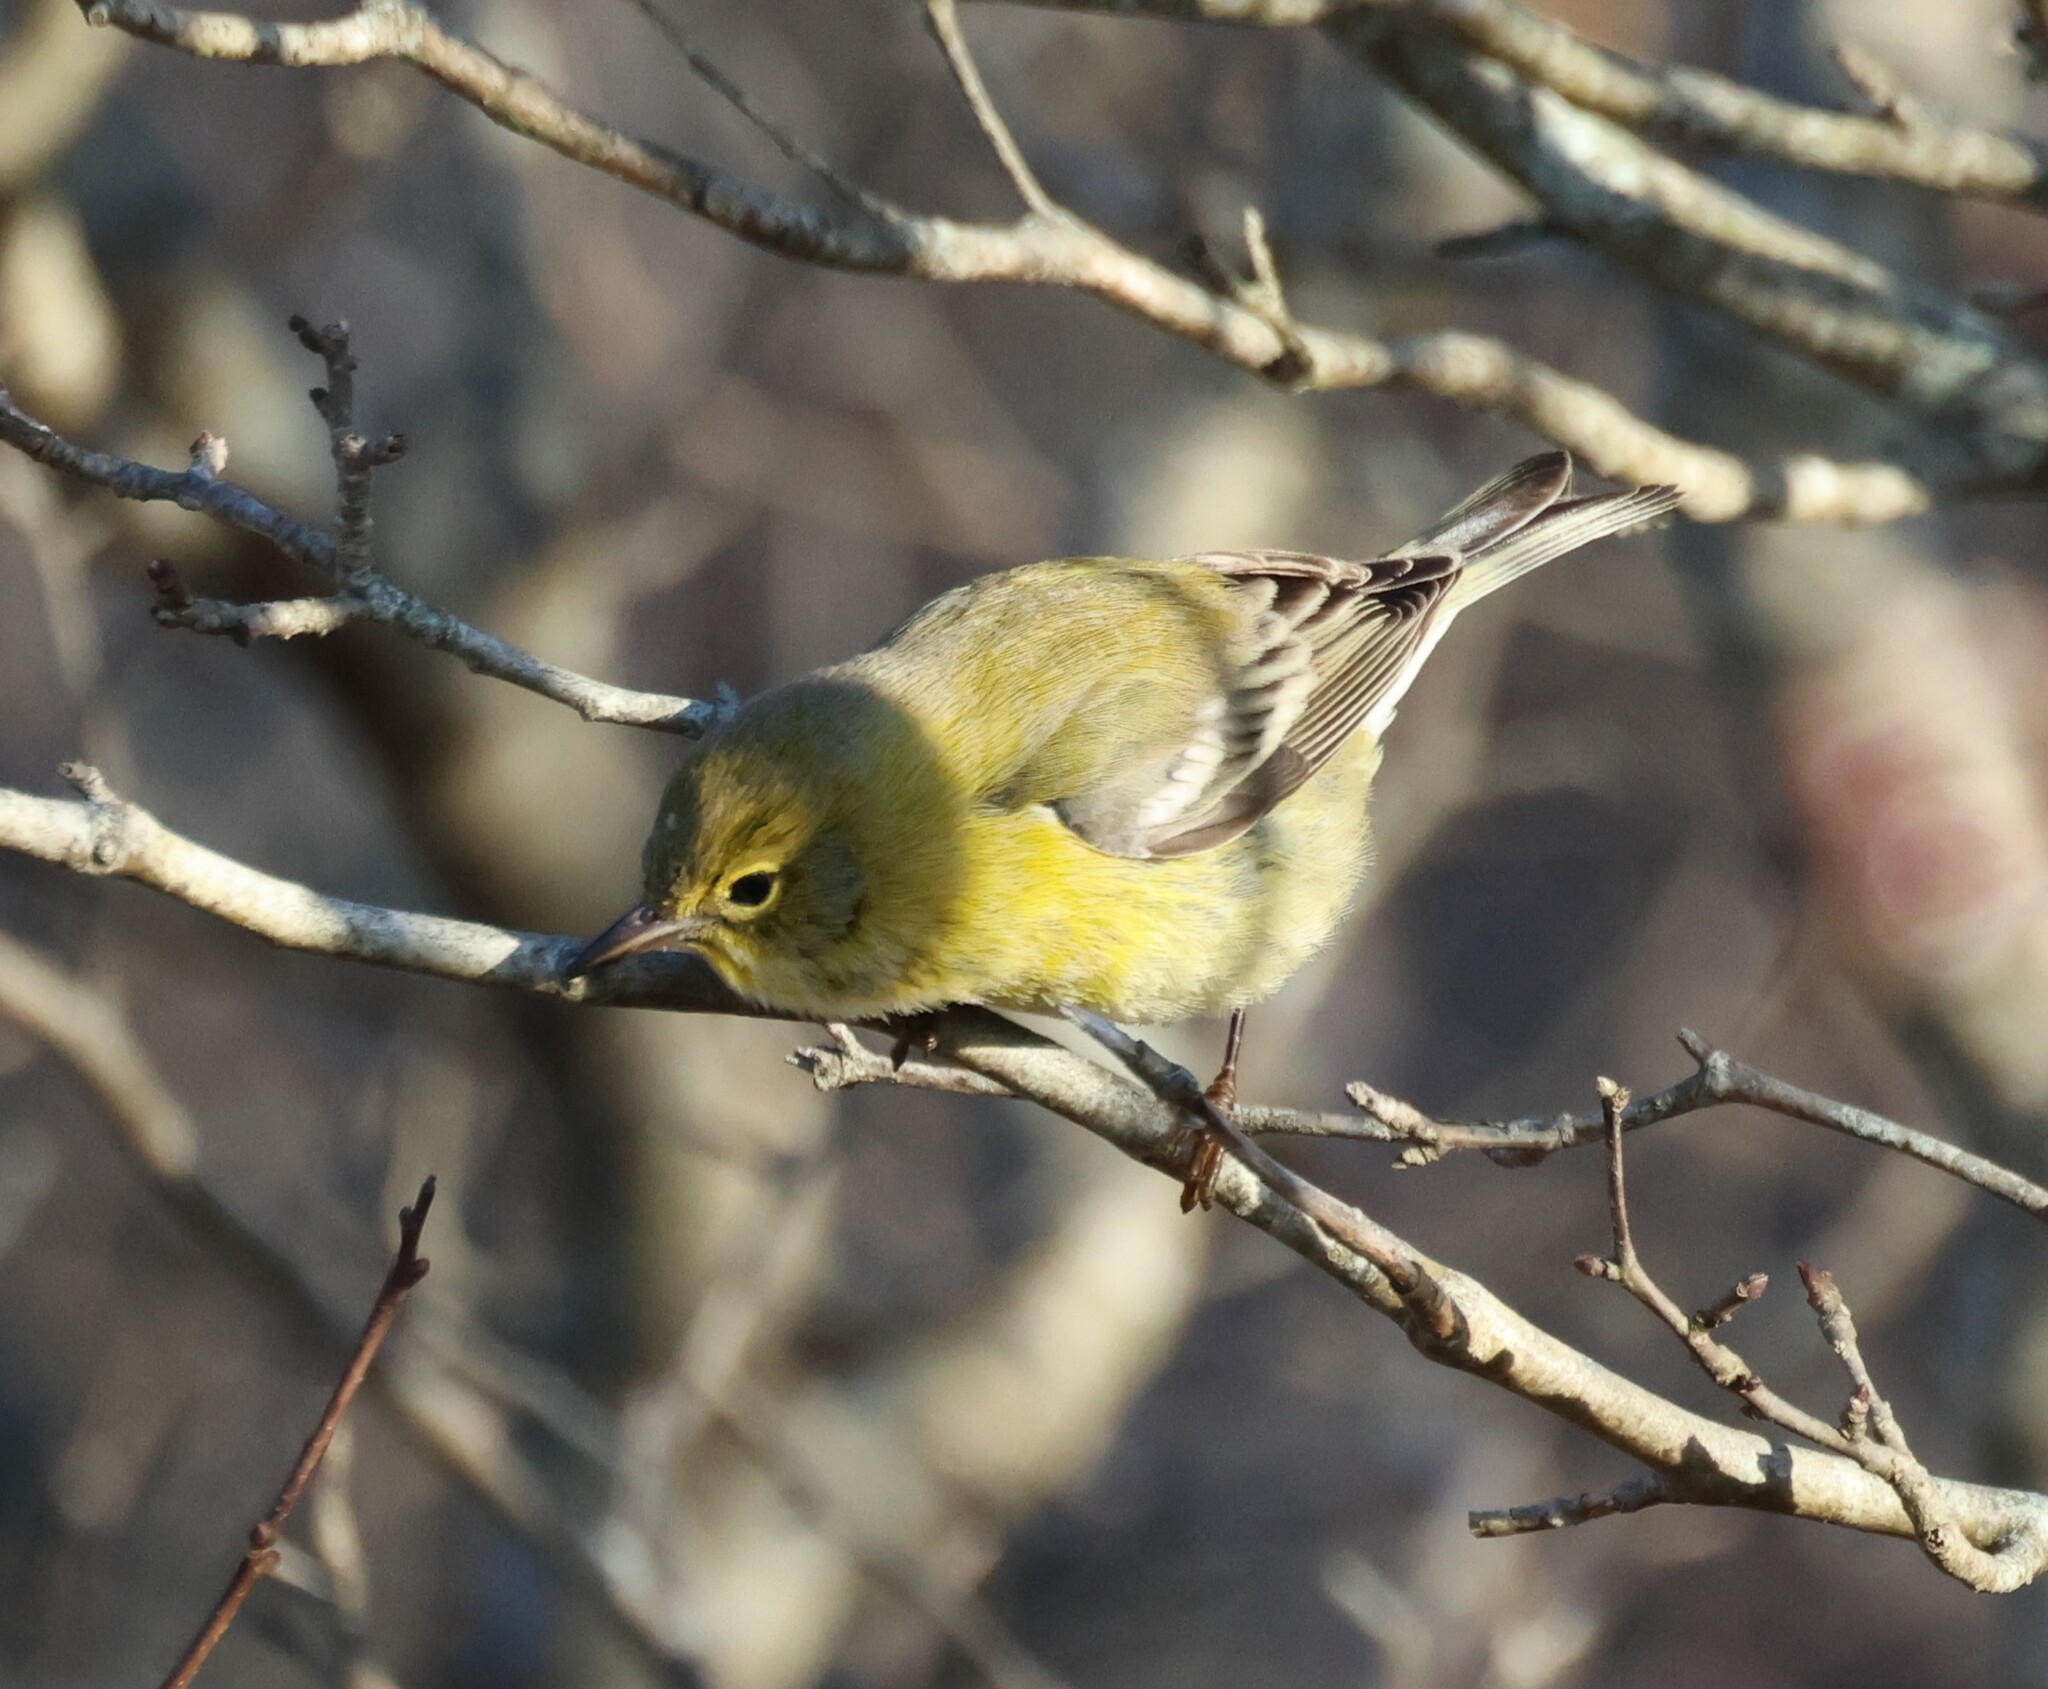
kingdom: Animalia
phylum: Chordata
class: Aves
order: Passeriformes
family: Parulidae
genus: Setophaga
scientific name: Setophaga pinus
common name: Pine warbler
